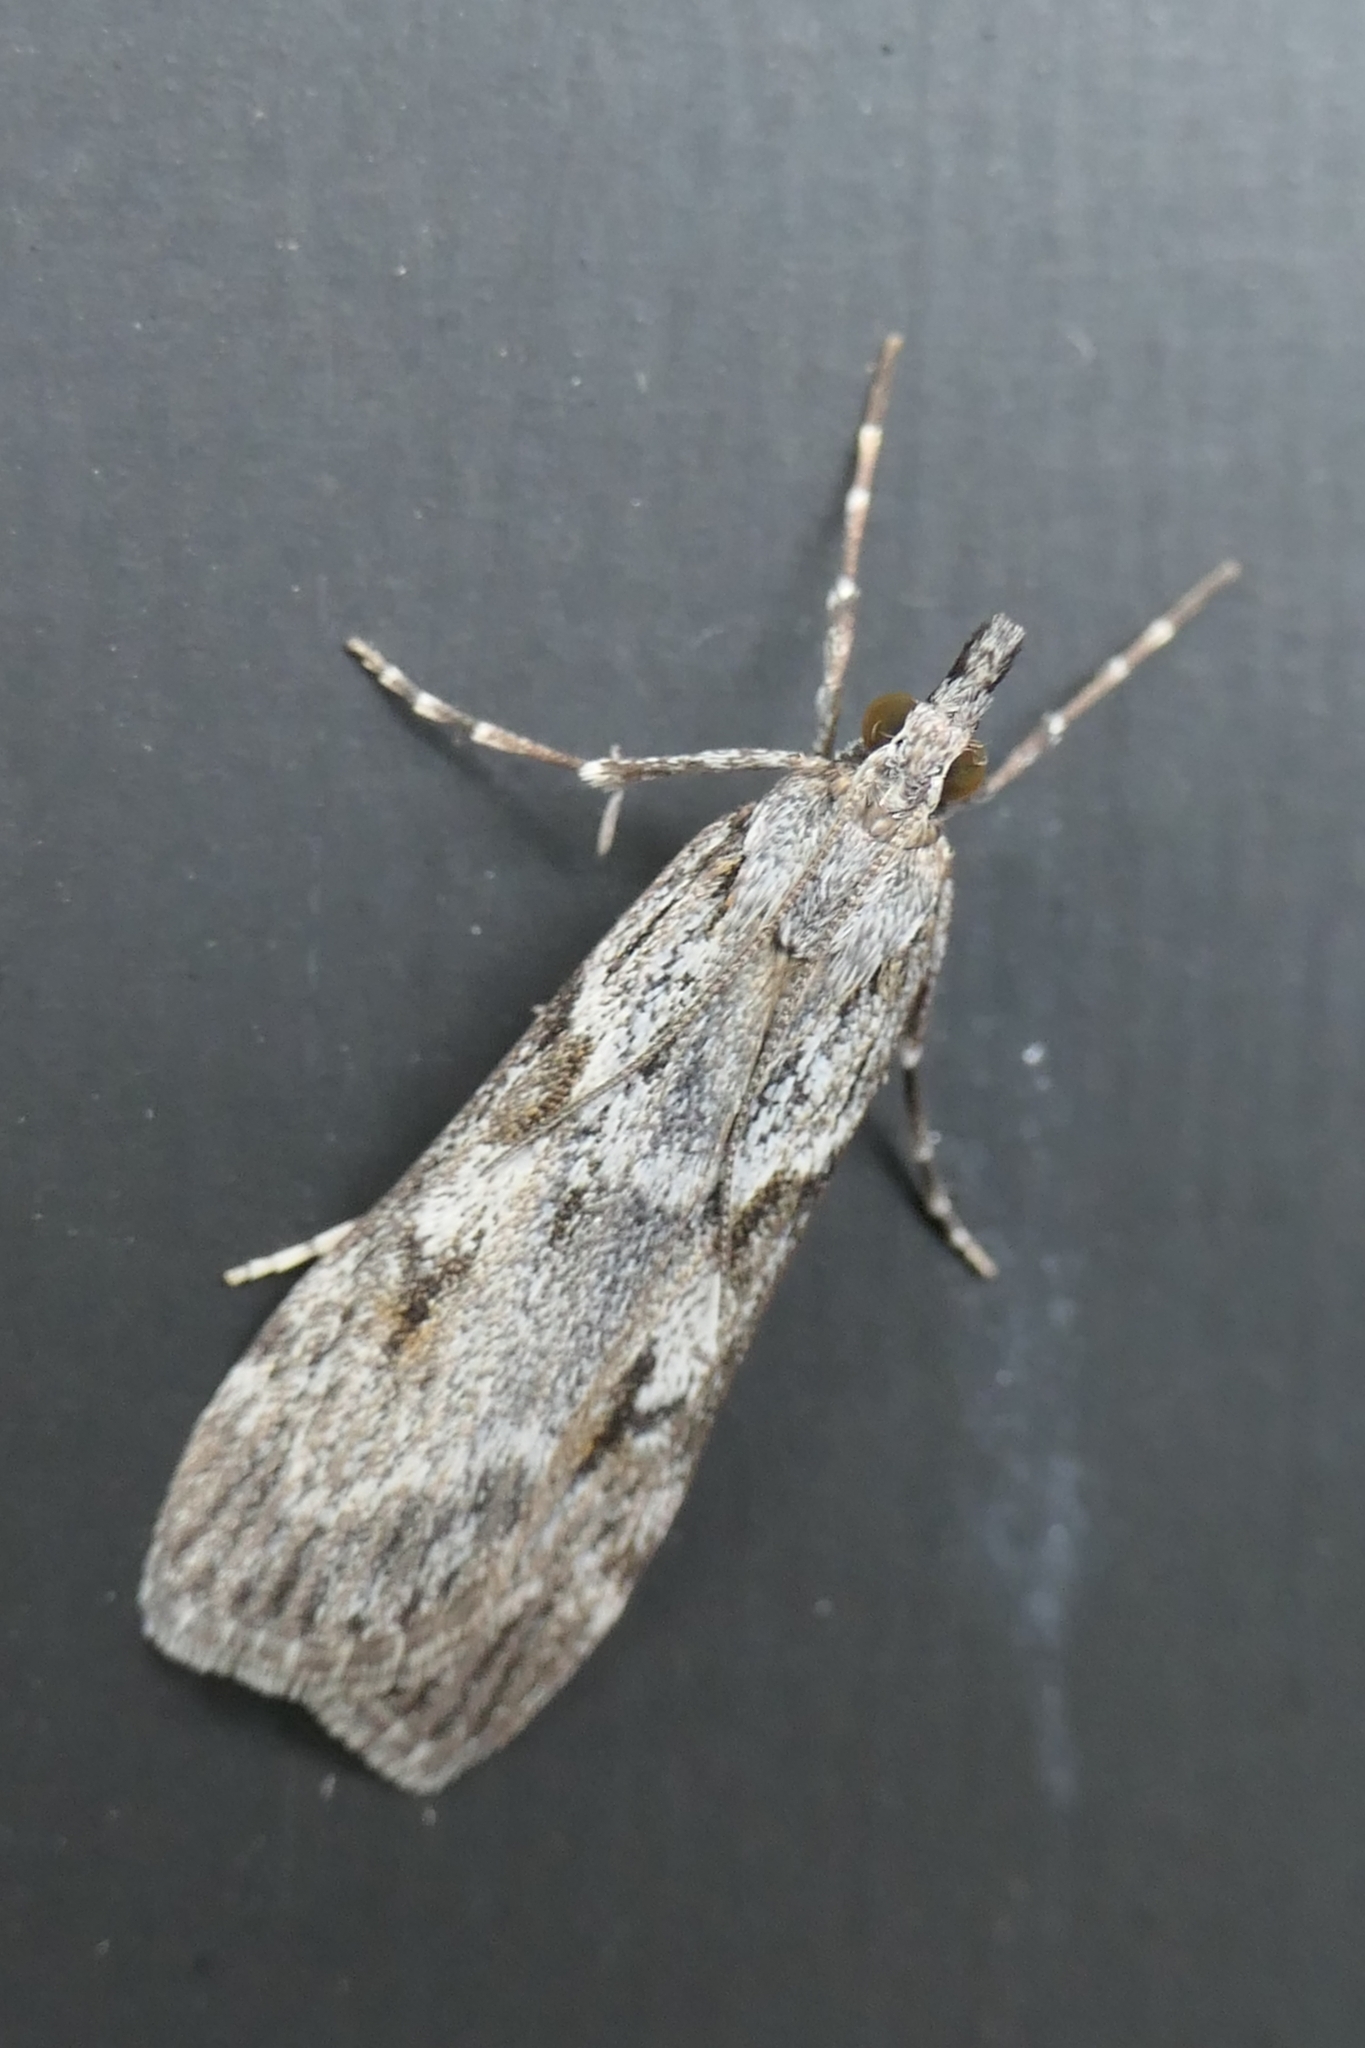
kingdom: Animalia
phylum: Arthropoda
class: Insecta
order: Lepidoptera
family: Crambidae
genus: Scoparia
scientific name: Scoparia halopis
